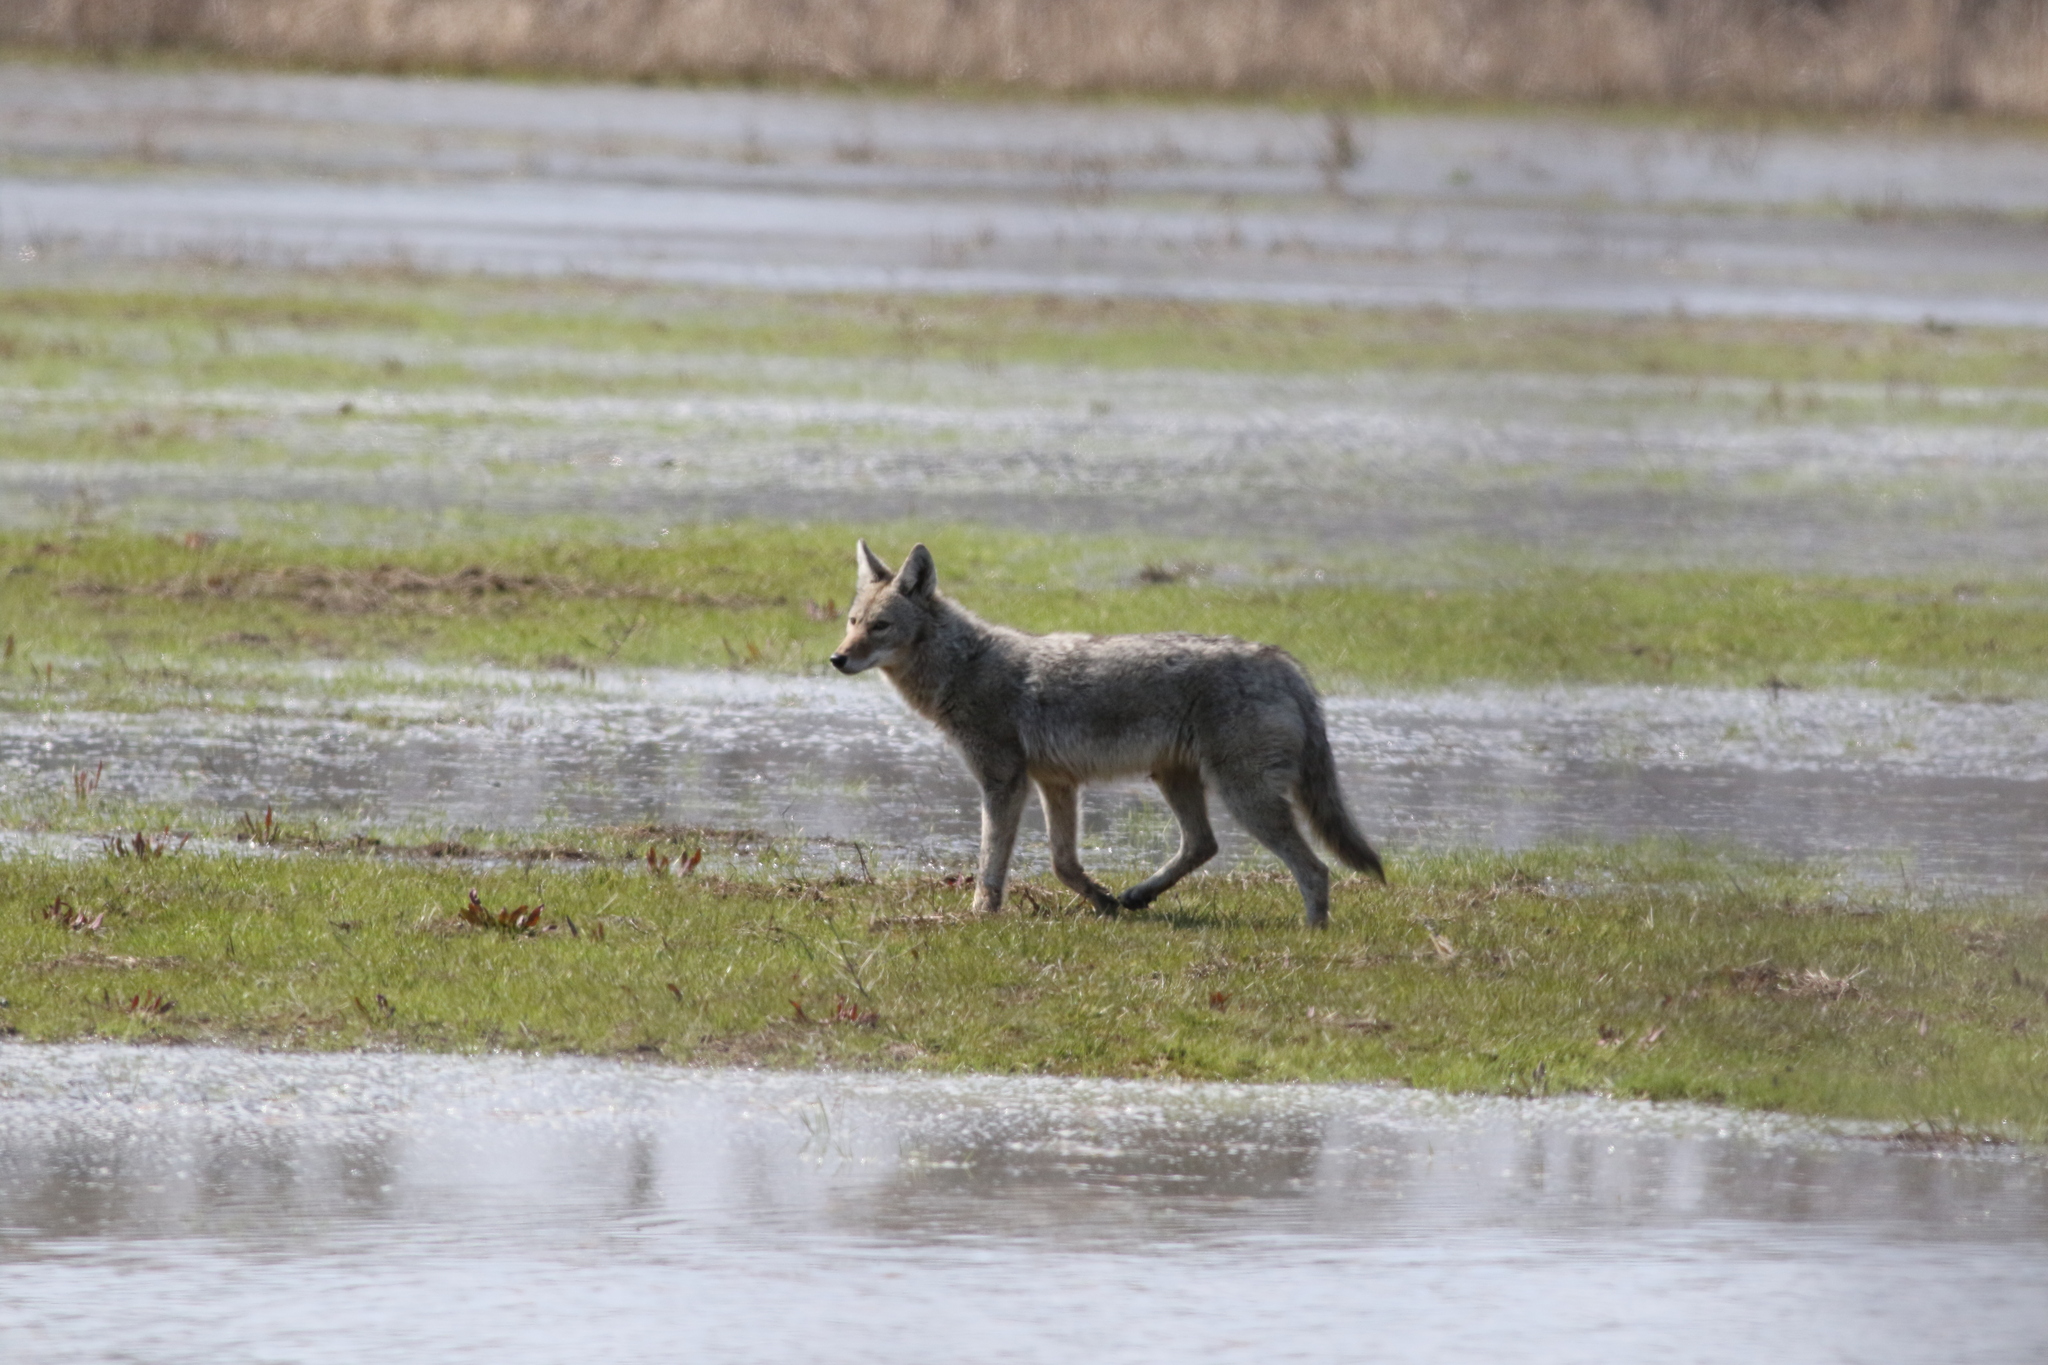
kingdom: Animalia
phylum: Chordata
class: Mammalia
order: Carnivora
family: Canidae
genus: Canis
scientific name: Canis latrans
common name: Coyote
